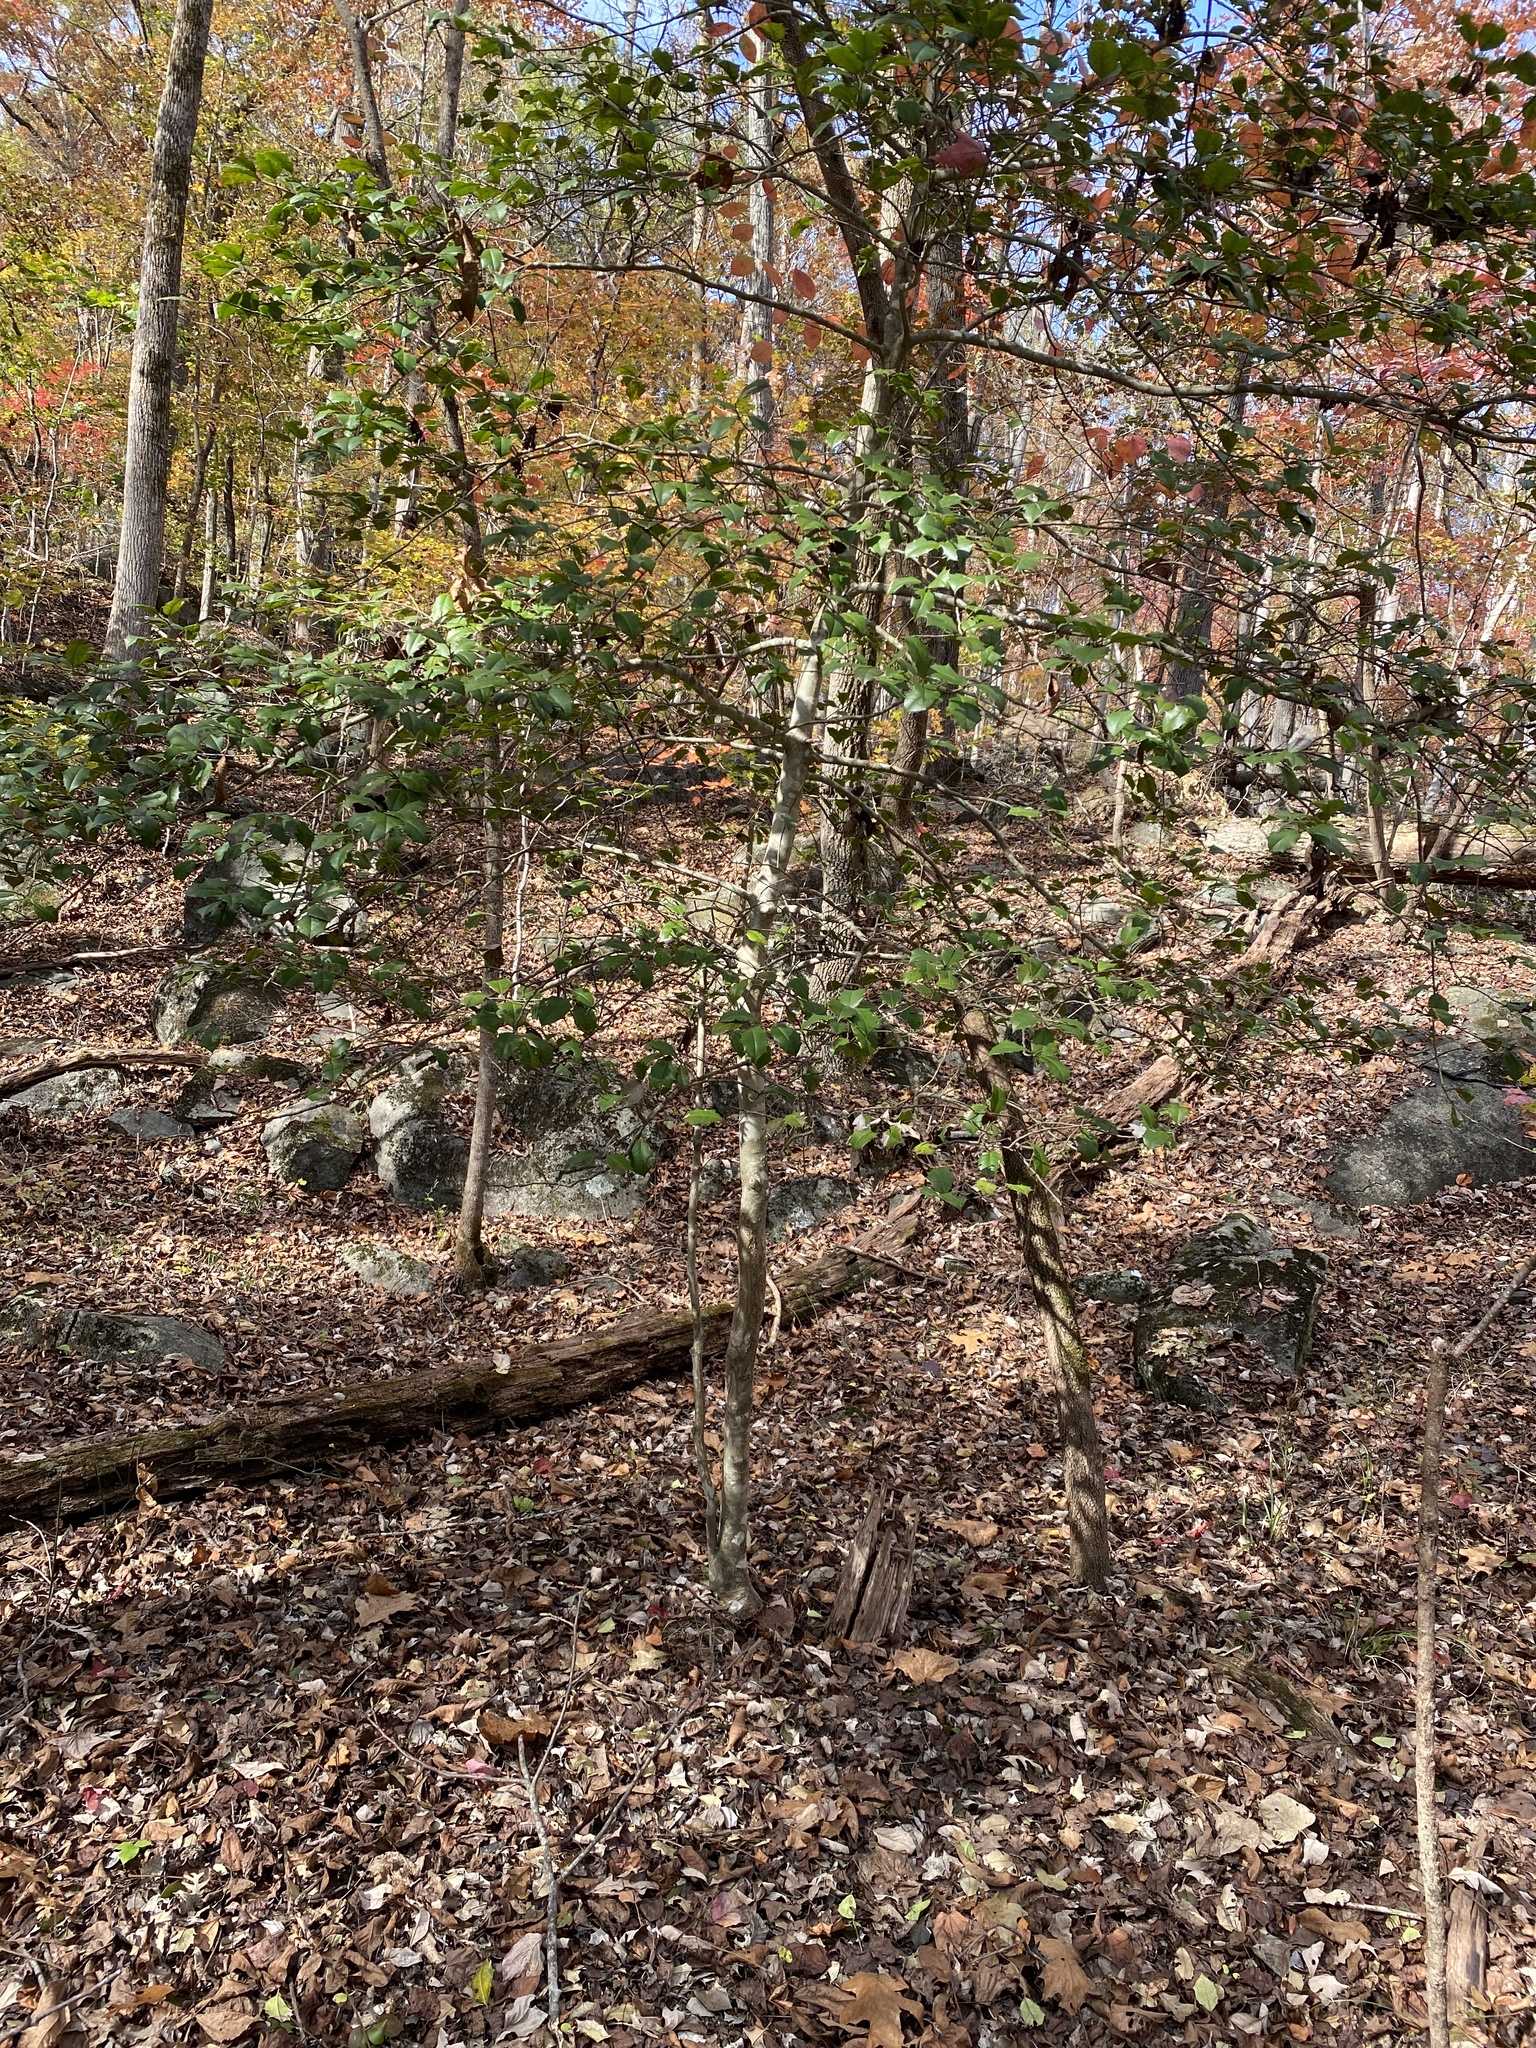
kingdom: Plantae
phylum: Tracheophyta
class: Magnoliopsida
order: Aquifoliales
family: Aquifoliaceae
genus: Ilex
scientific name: Ilex opaca
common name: American holly
